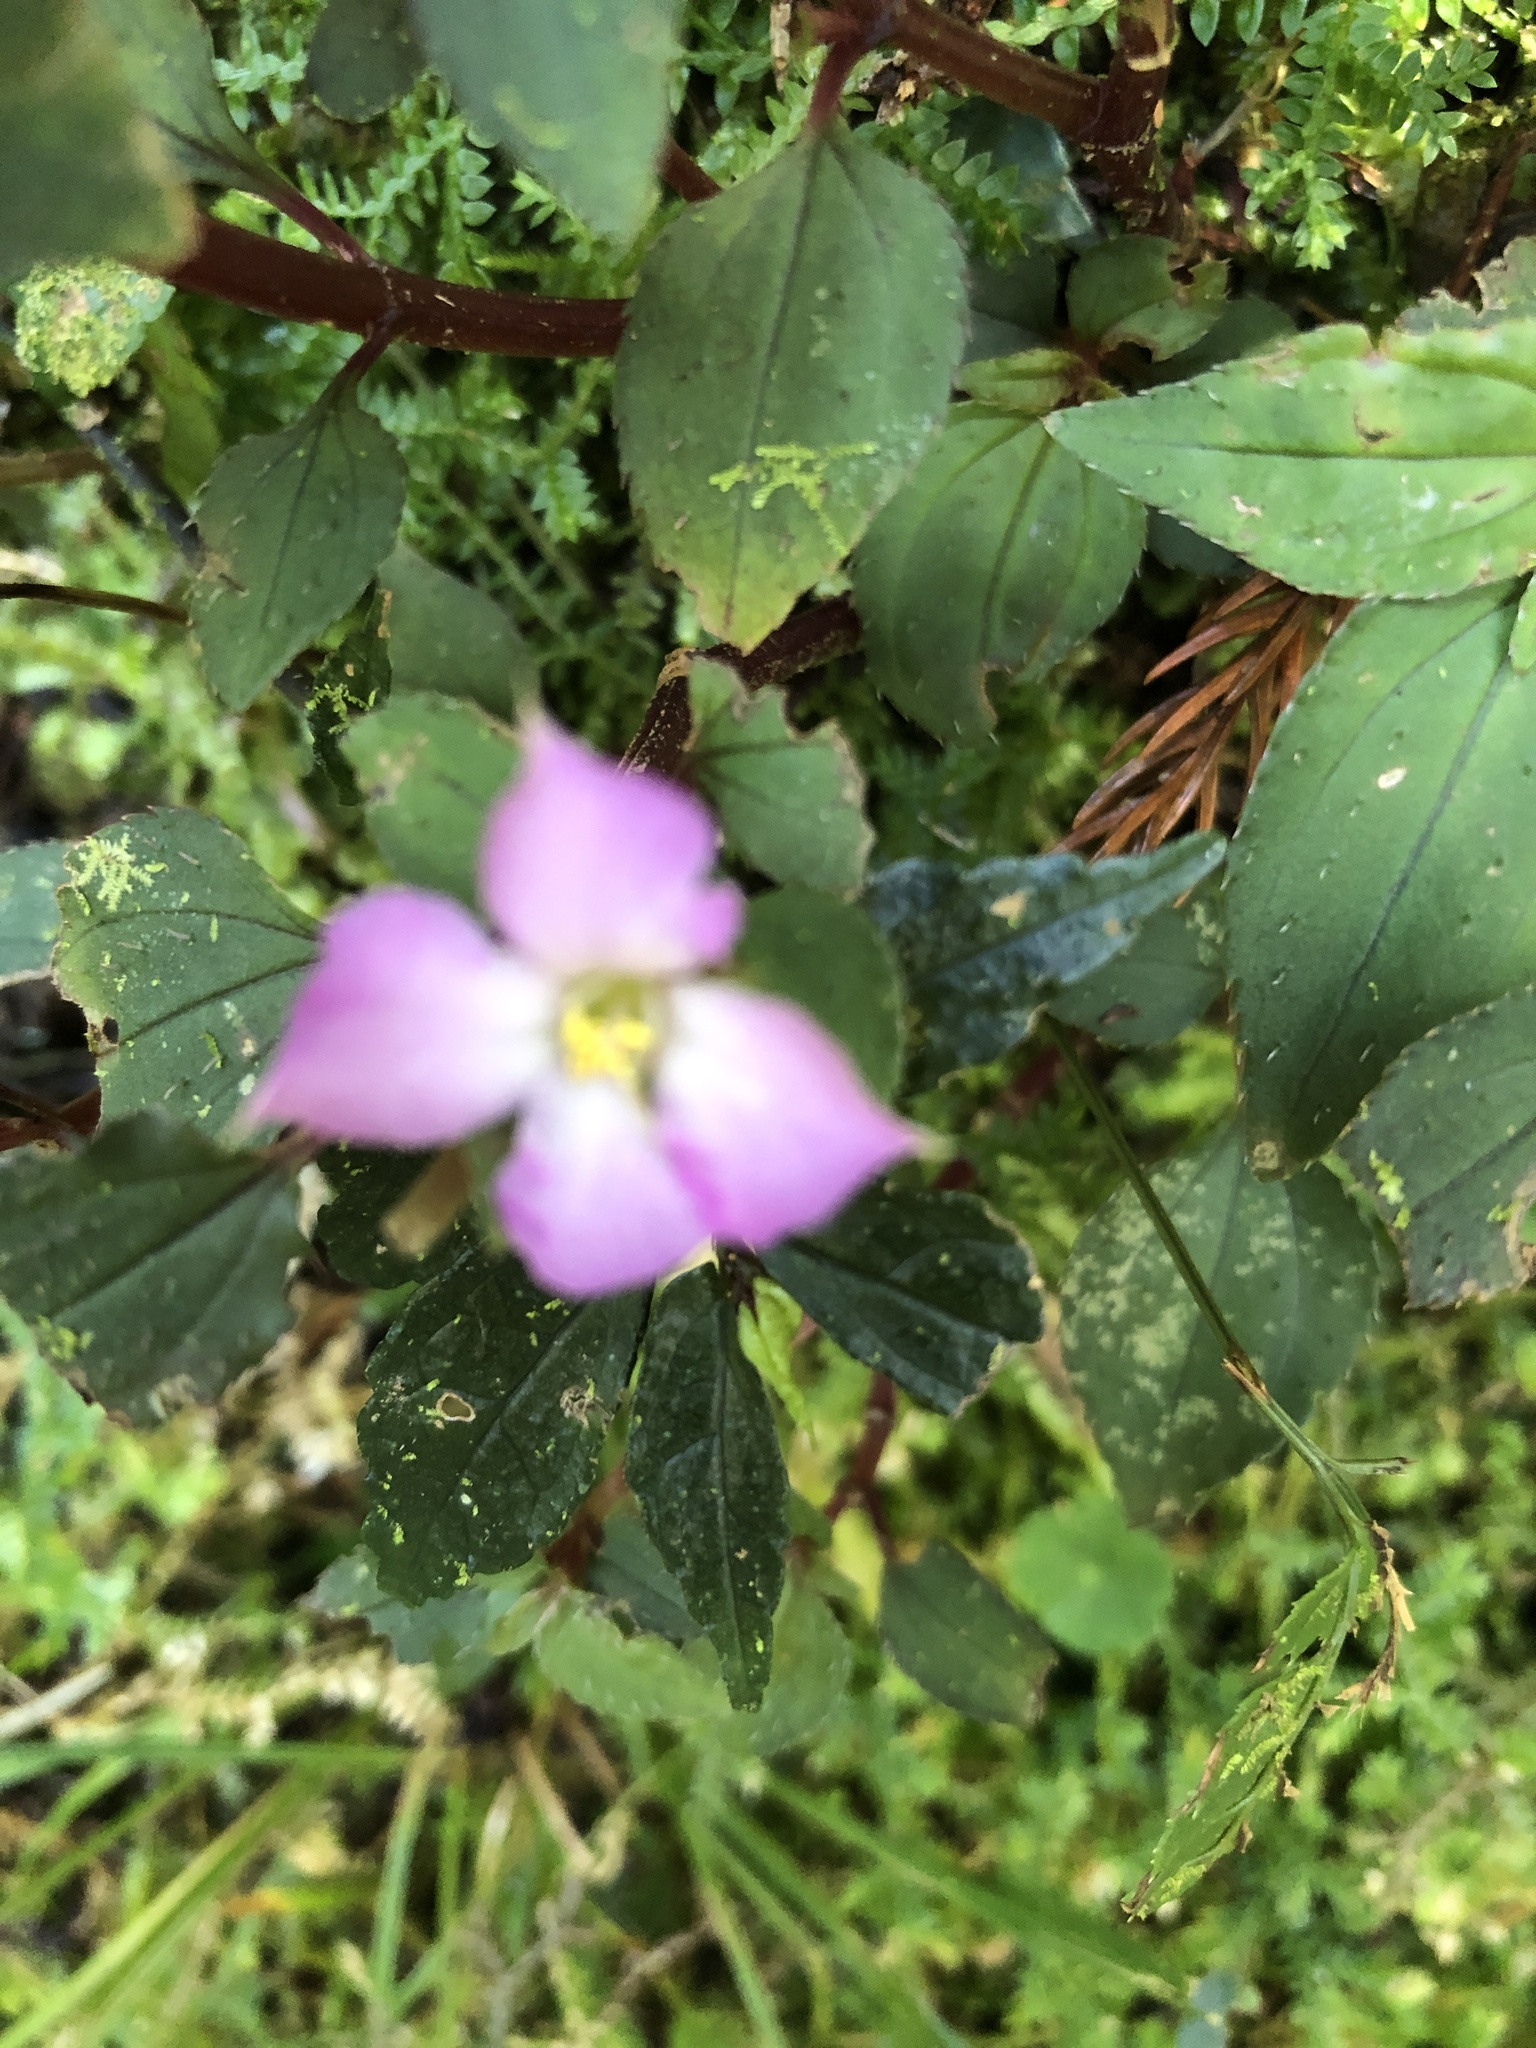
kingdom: Plantae
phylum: Tracheophyta
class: Magnoliopsida
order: Myrtales
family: Melastomataceae
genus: Sarcopyramis
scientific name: Sarcopyramis napalensis
